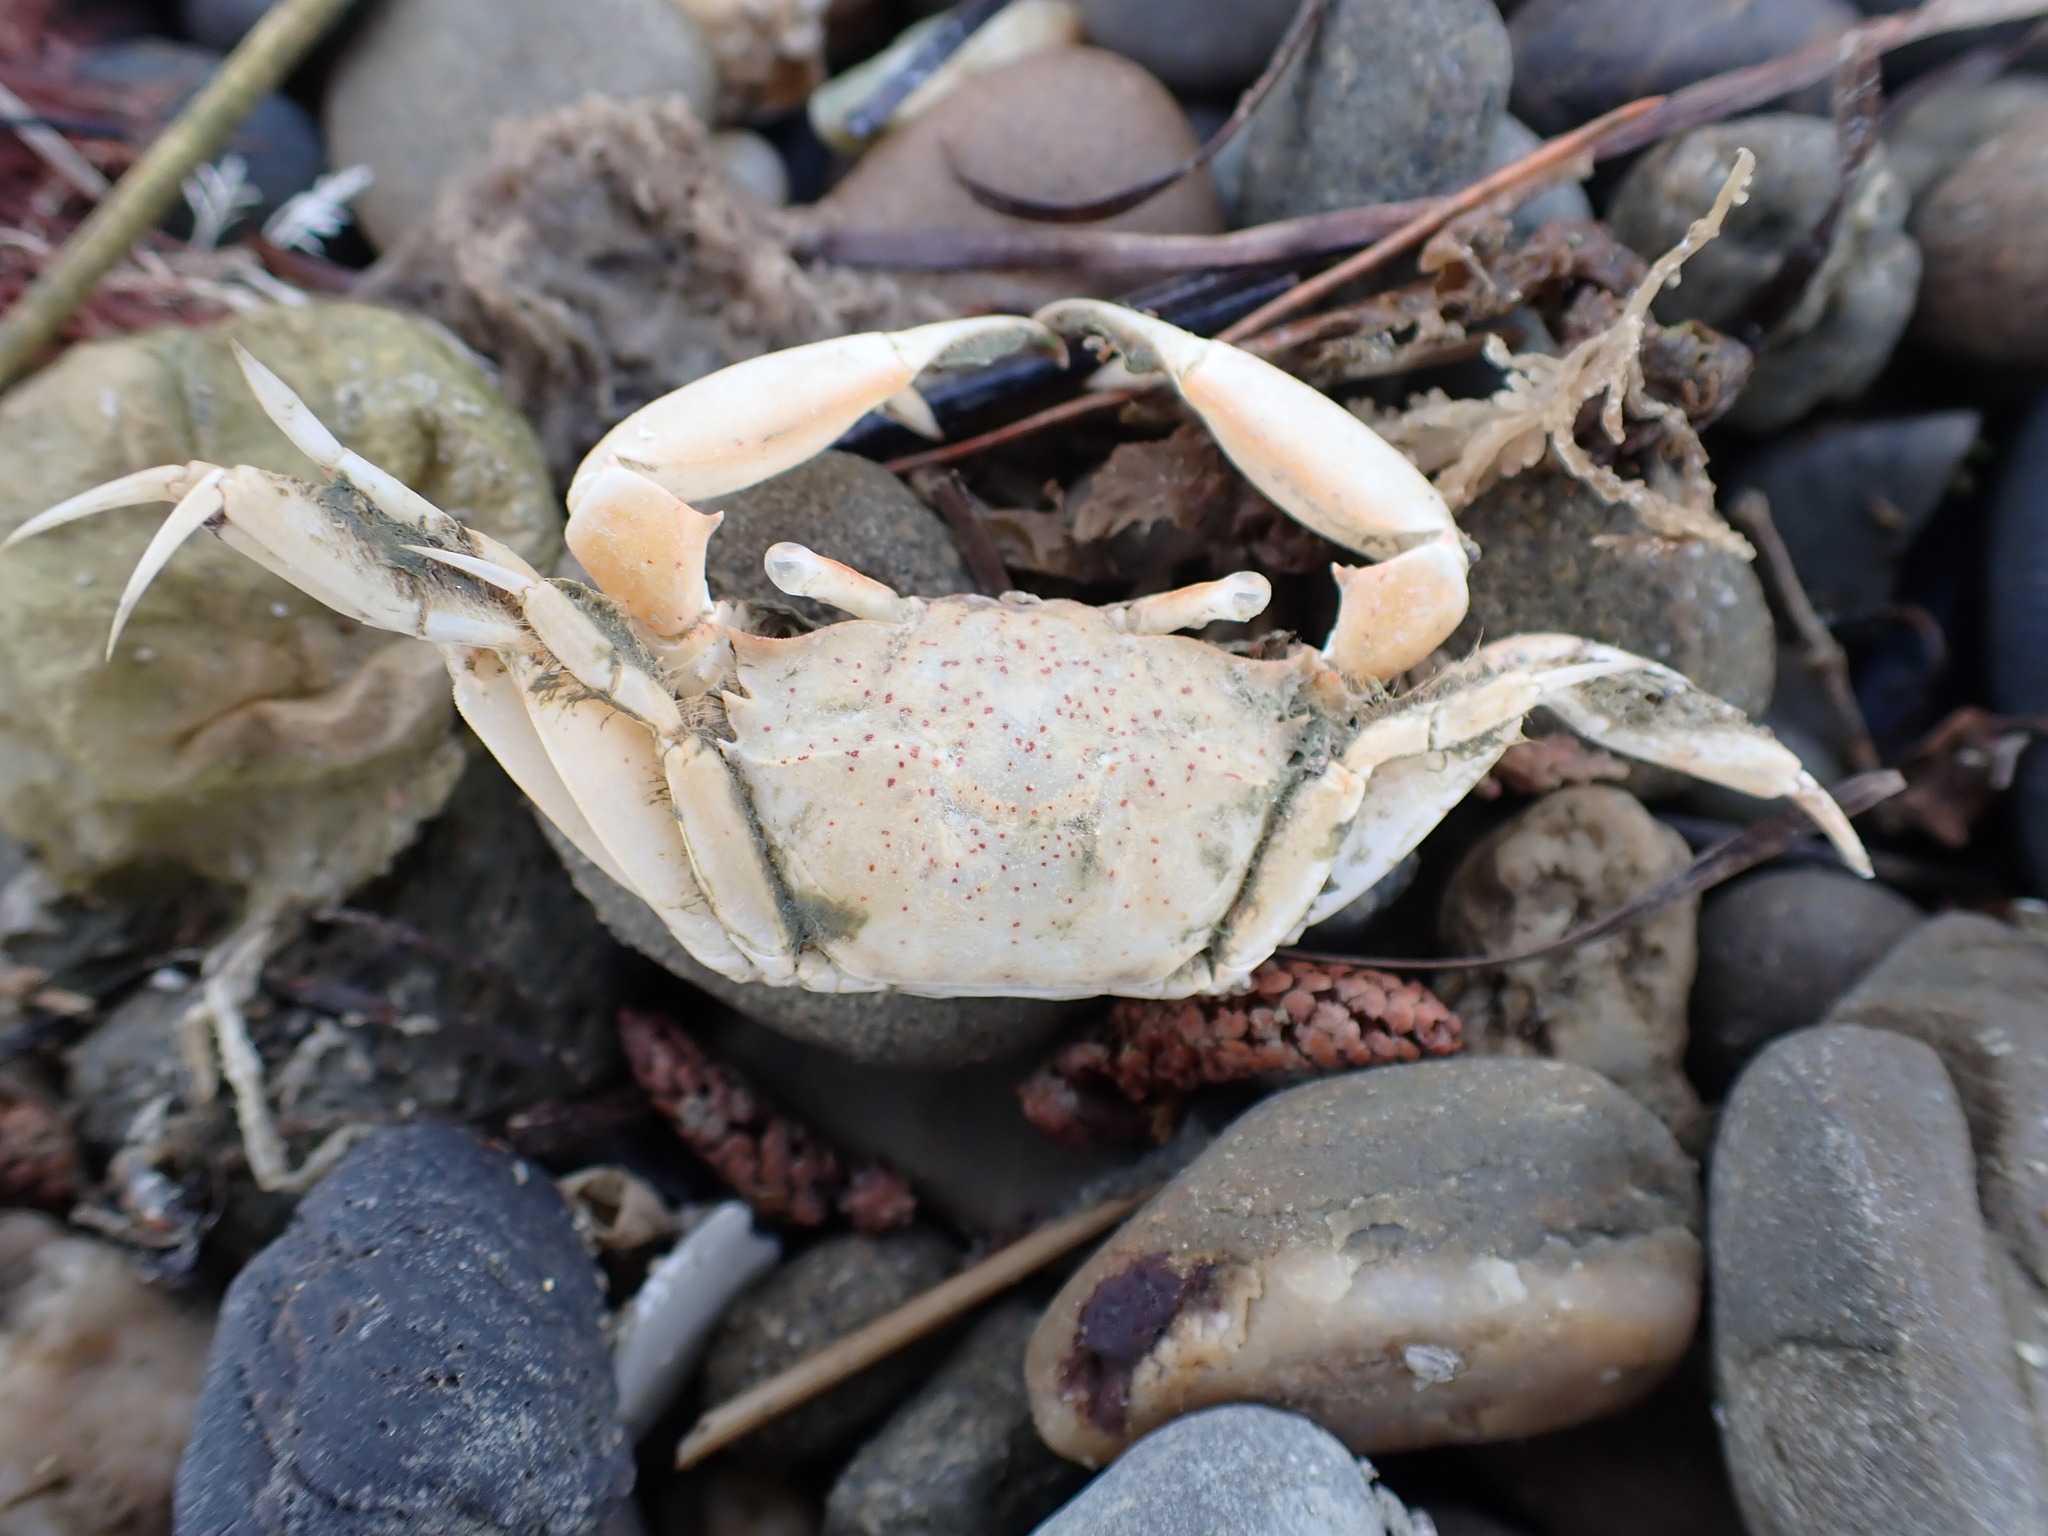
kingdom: Animalia
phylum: Arthropoda
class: Malacostraca
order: Decapoda
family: Macrophthalmidae
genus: Hemiplax
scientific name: Hemiplax hirtipes
